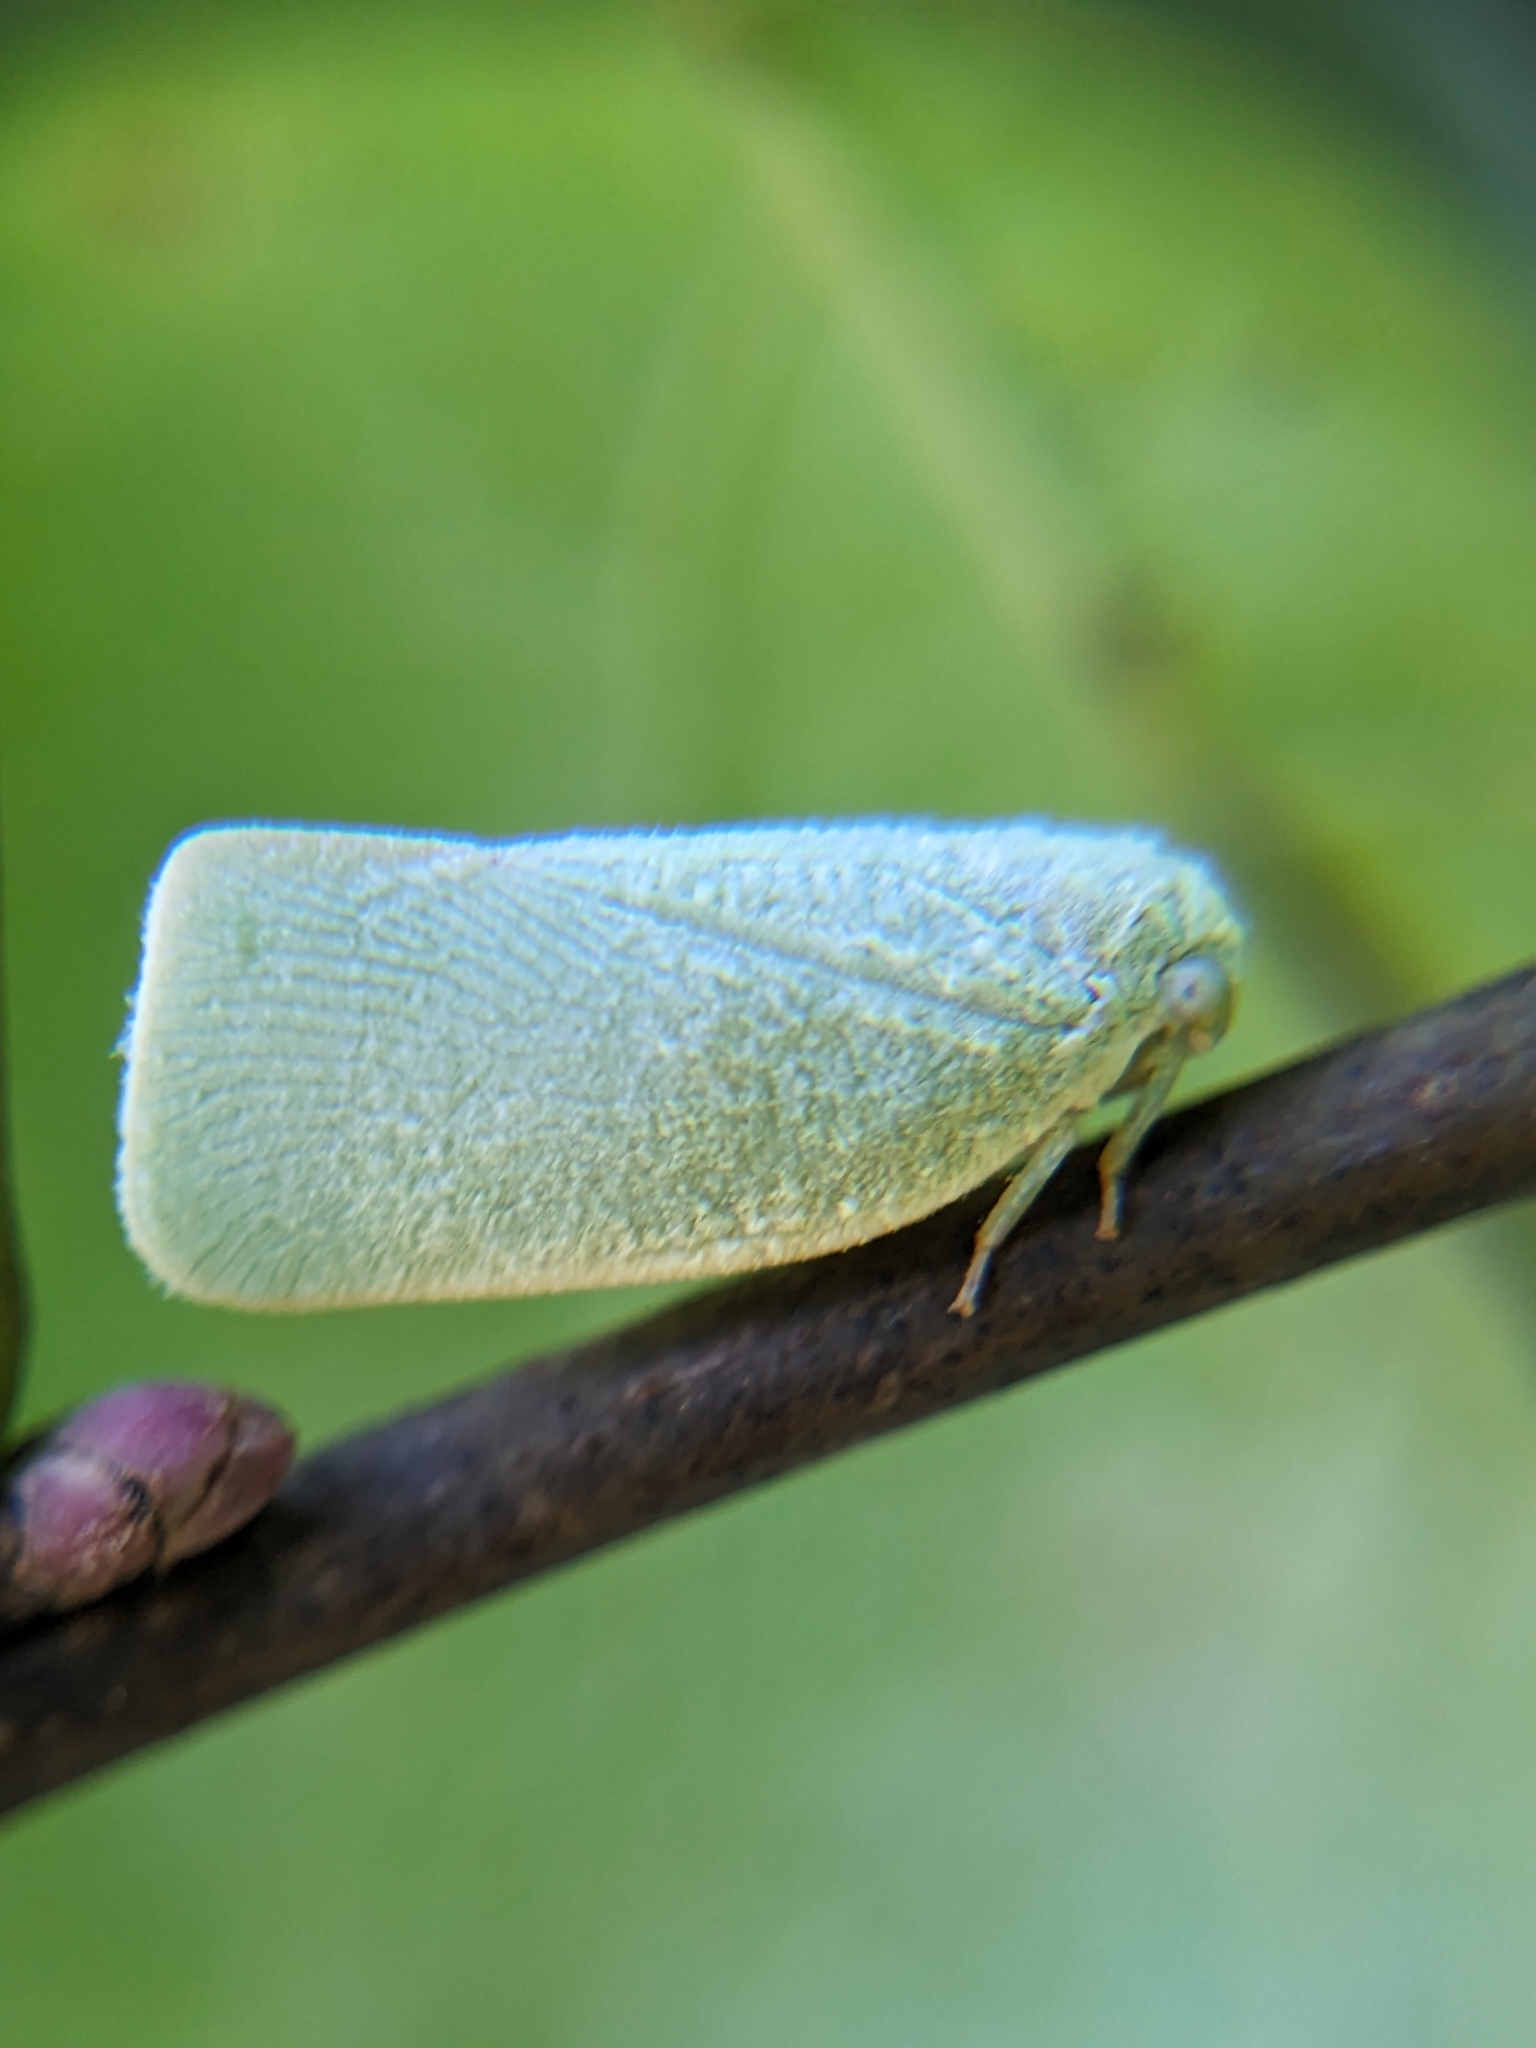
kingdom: Animalia
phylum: Arthropoda
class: Insecta
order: Hemiptera
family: Flatidae
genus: Flatormenis
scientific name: Flatormenis proxima
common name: Northern flatid planthopper
